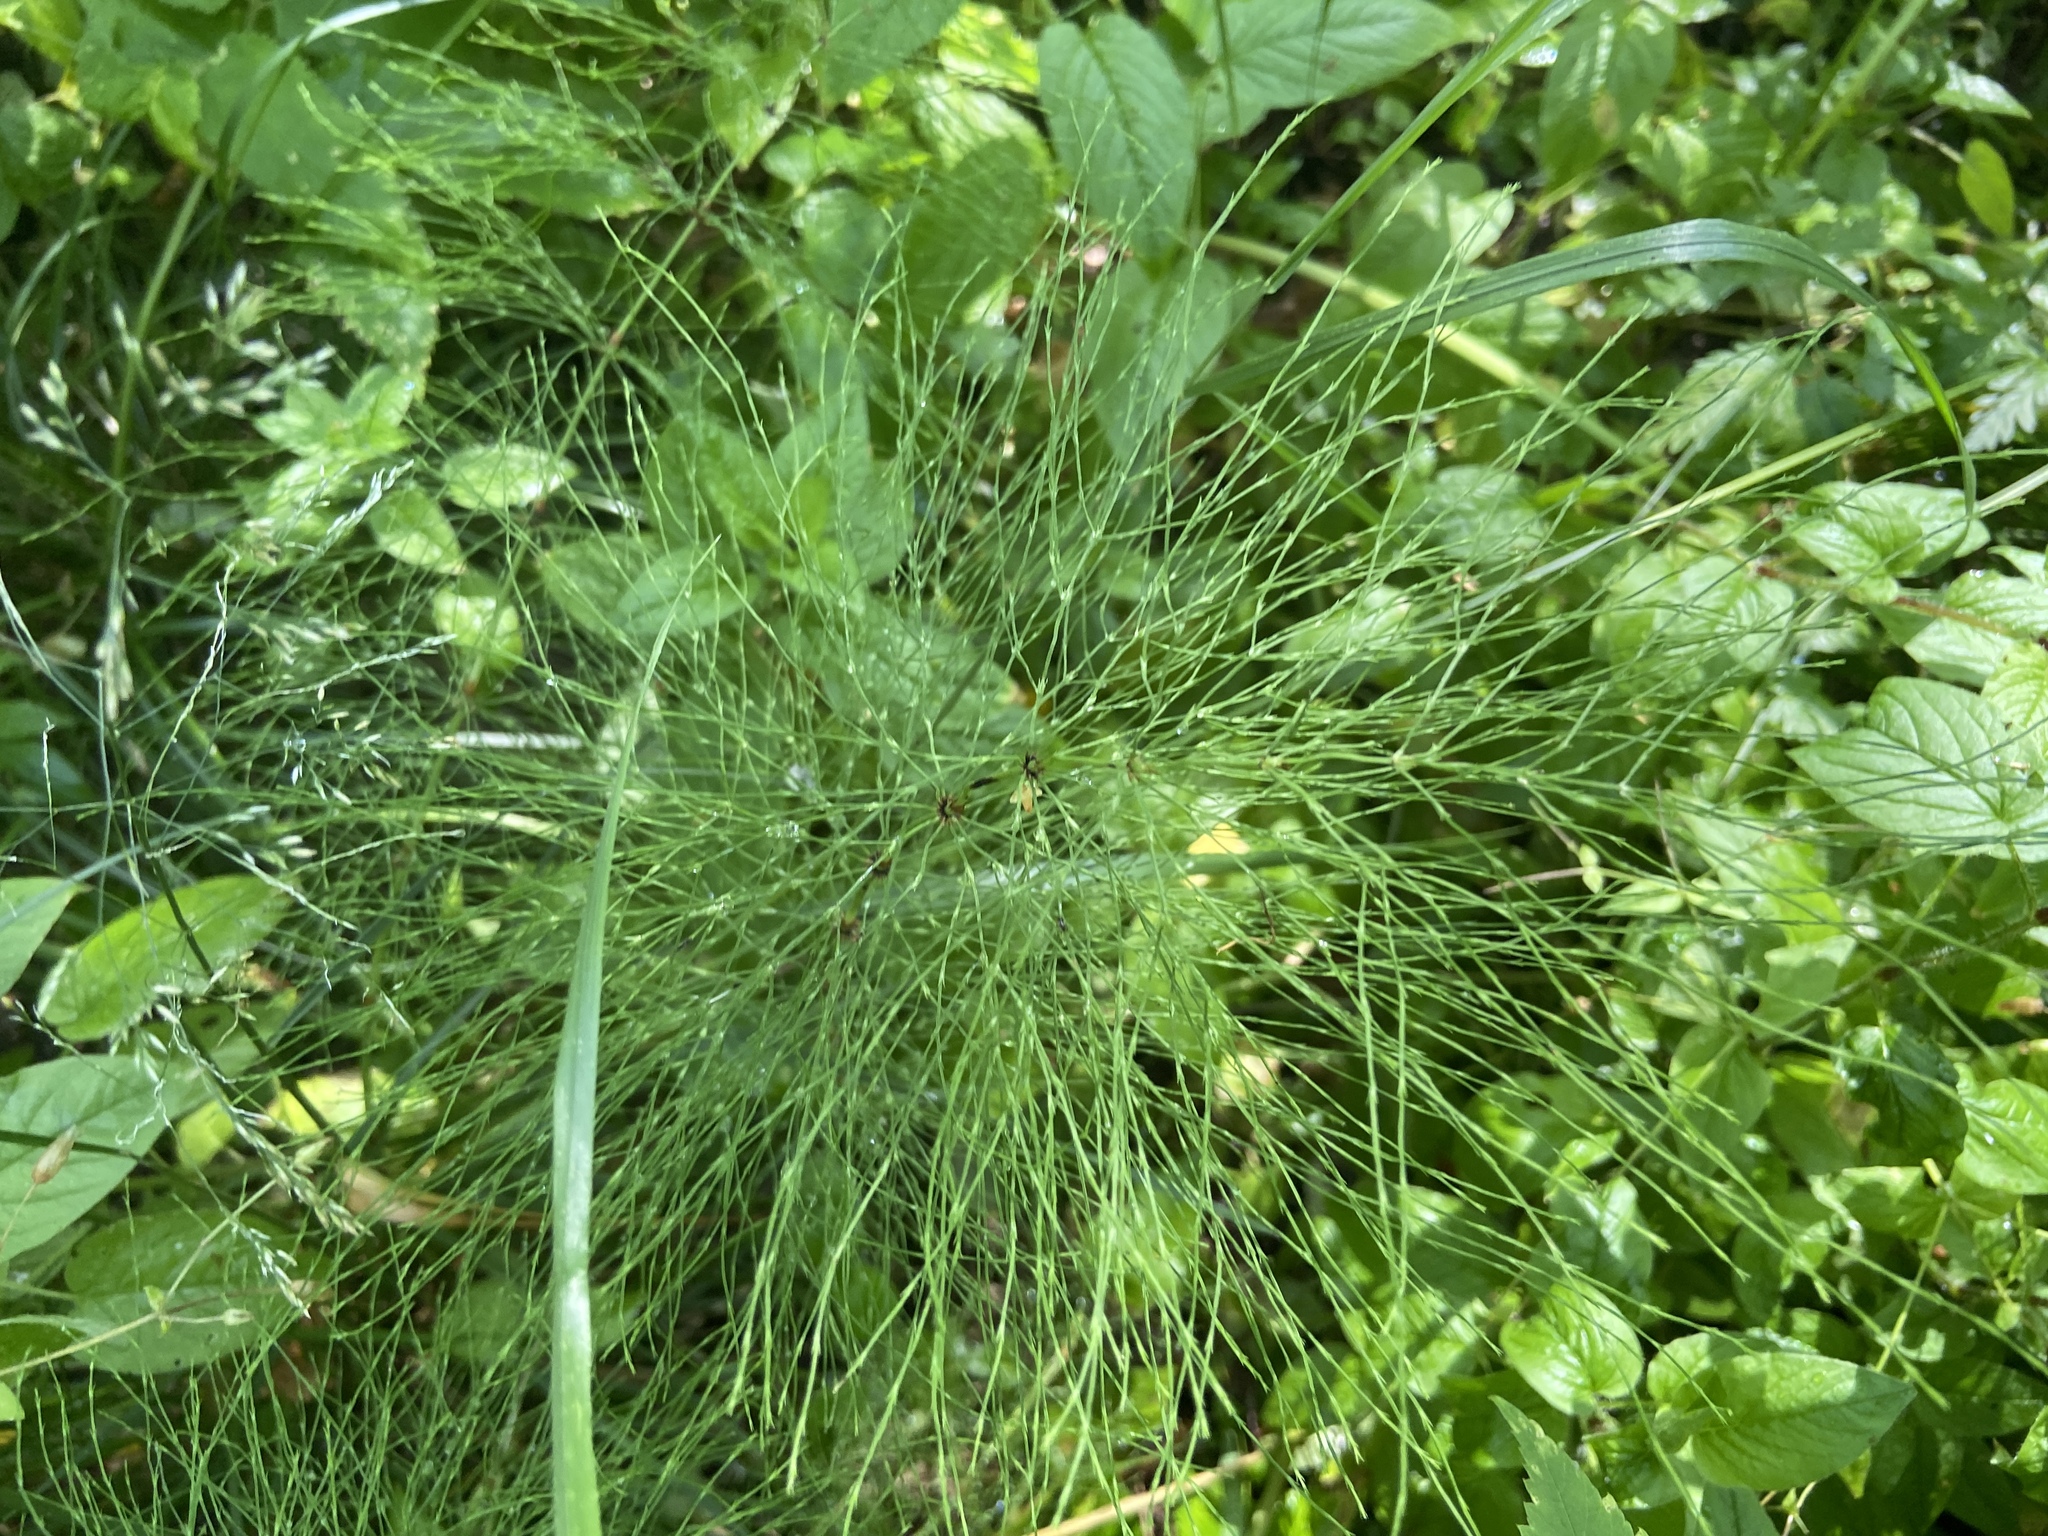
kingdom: Plantae
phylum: Tracheophyta
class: Polypodiopsida
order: Equisetales
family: Equisetaceae
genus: Equisetum
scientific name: Equisetum sylvaticum
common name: Wood horsetail
